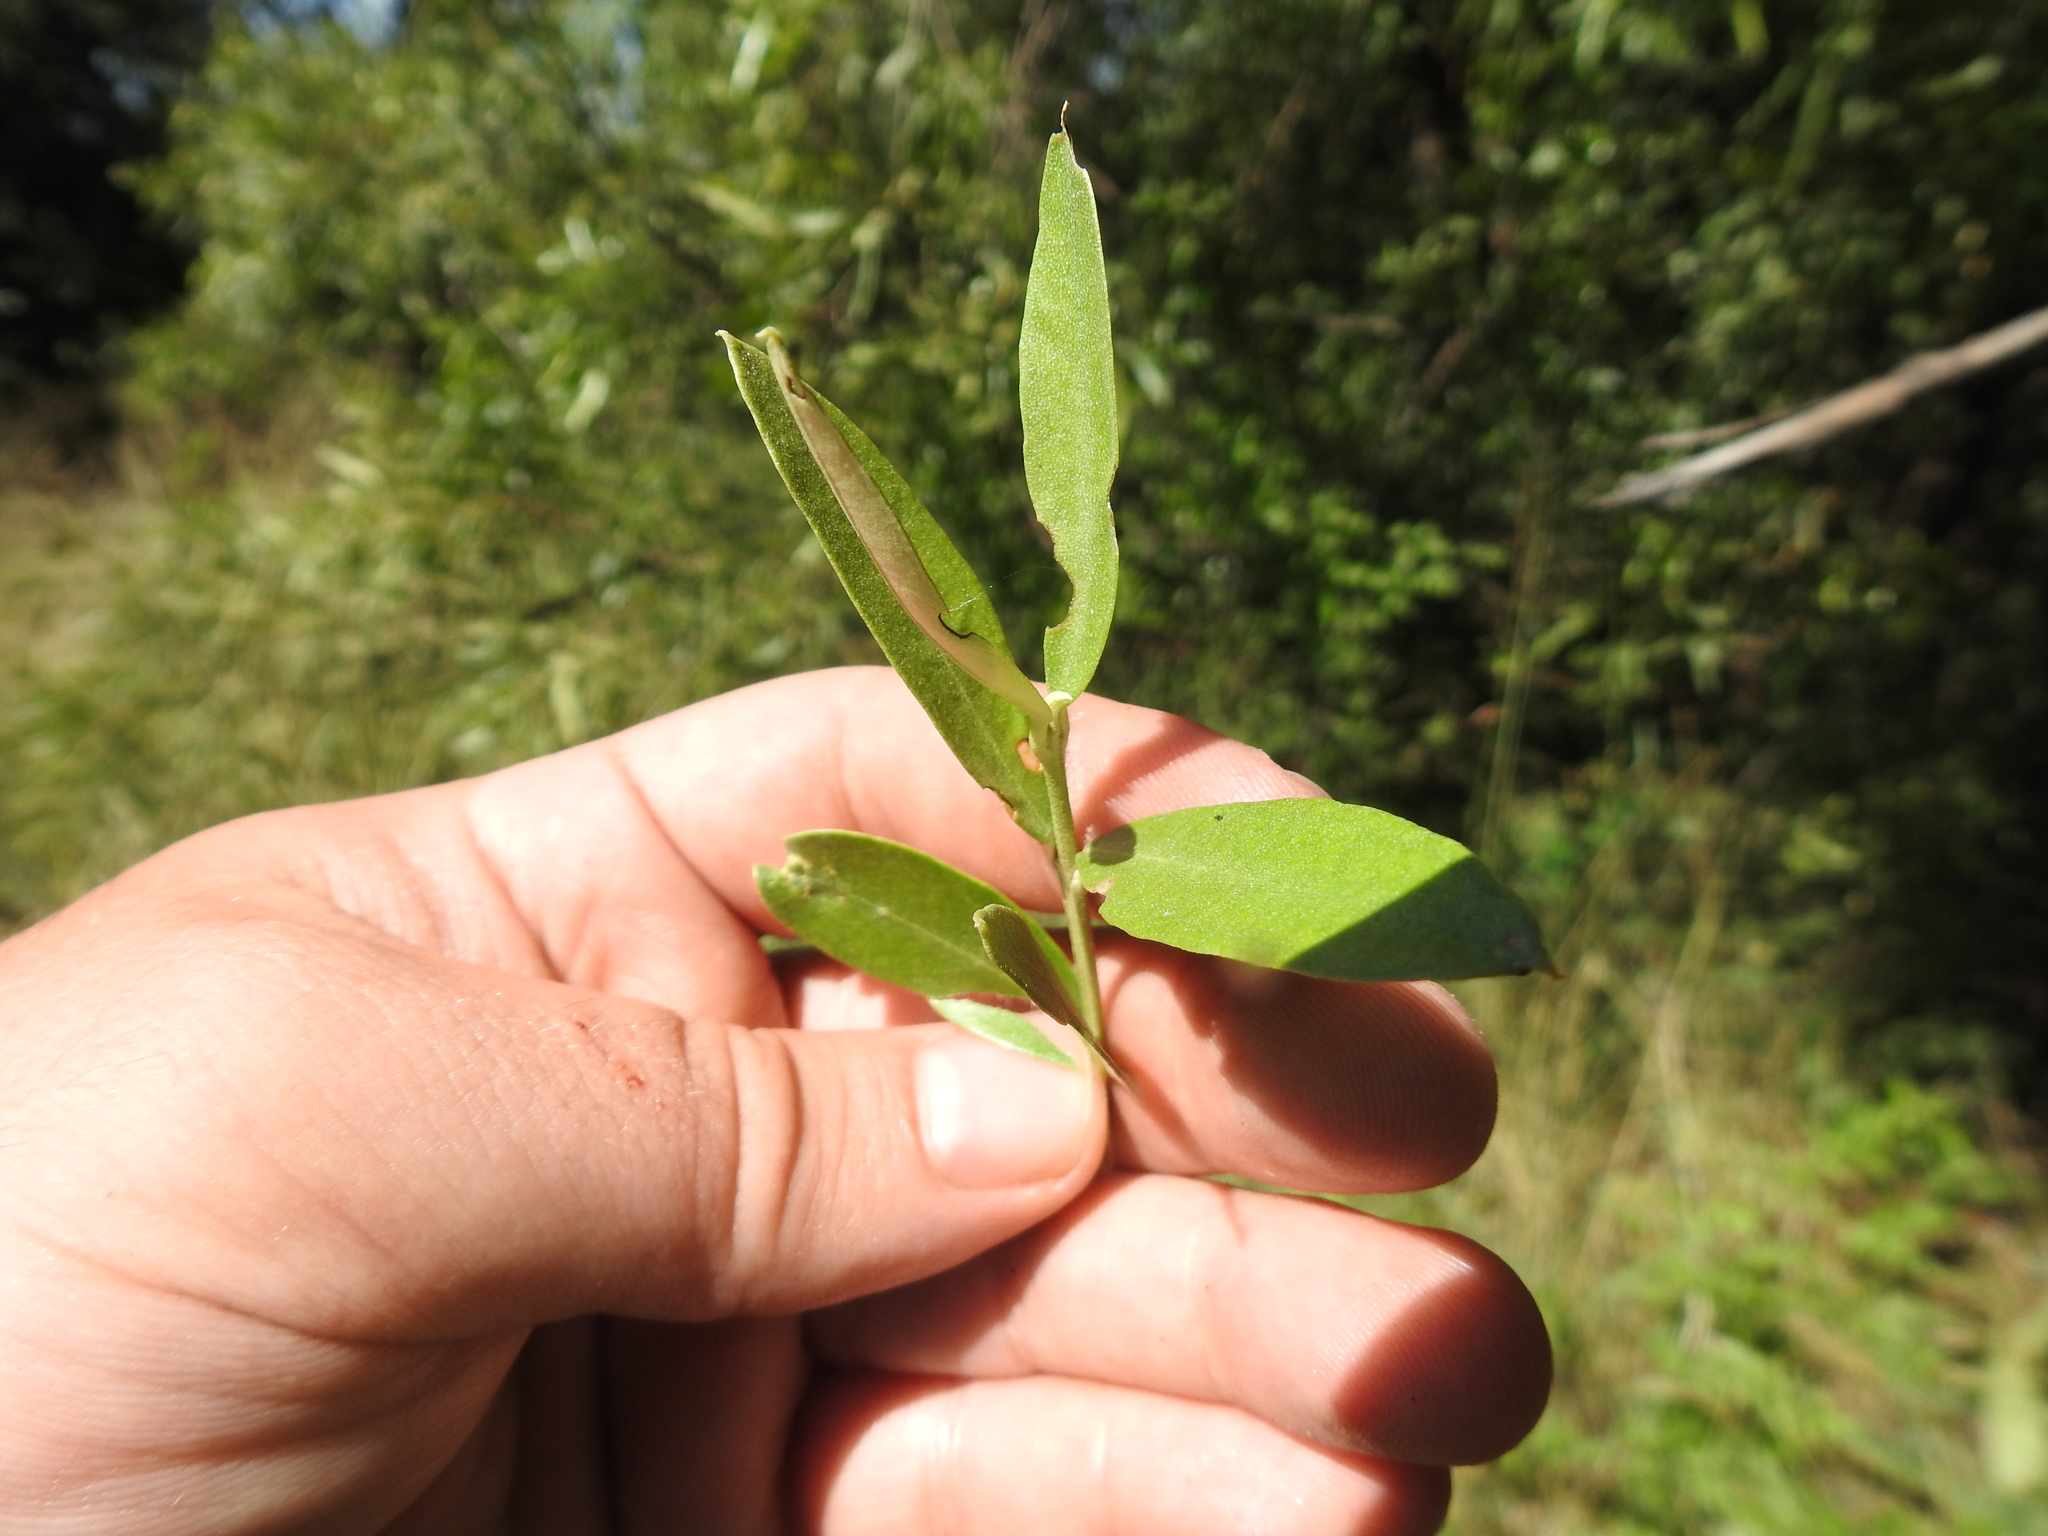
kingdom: Plantae
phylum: Tracheophyta
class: Magnoliopsida
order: Lamiales
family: Oleaceae
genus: Olea
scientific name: Olea europaea
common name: Olive
